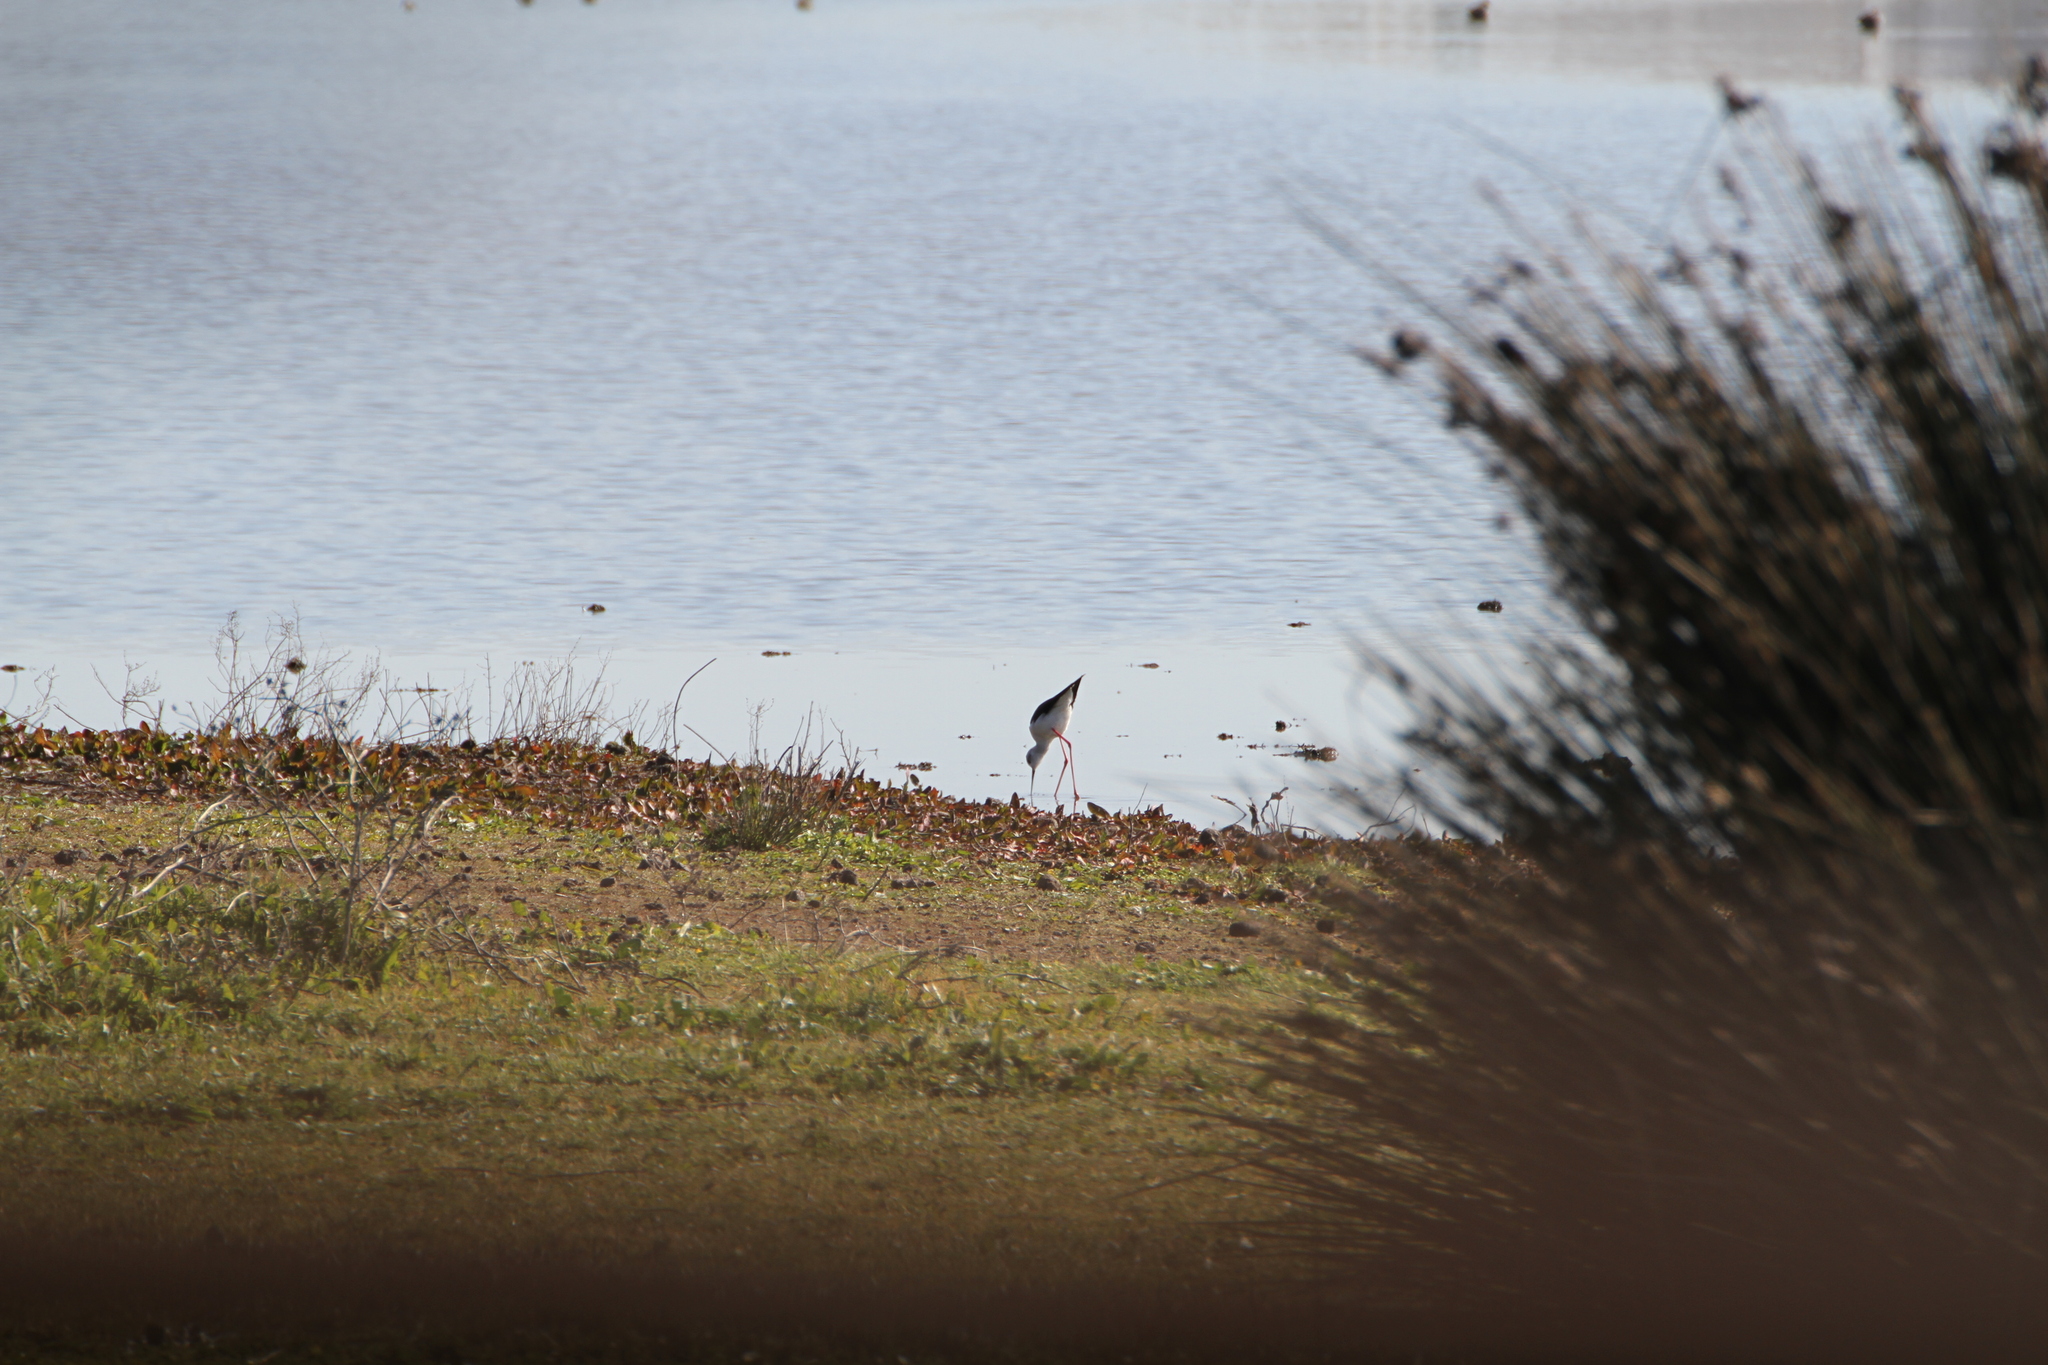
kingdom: Animalia
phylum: Chordata
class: Aves
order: Charadriiformes
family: Recurvirostridae
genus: Himantopus
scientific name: Himantopus himantopus
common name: Black-winged stilt
